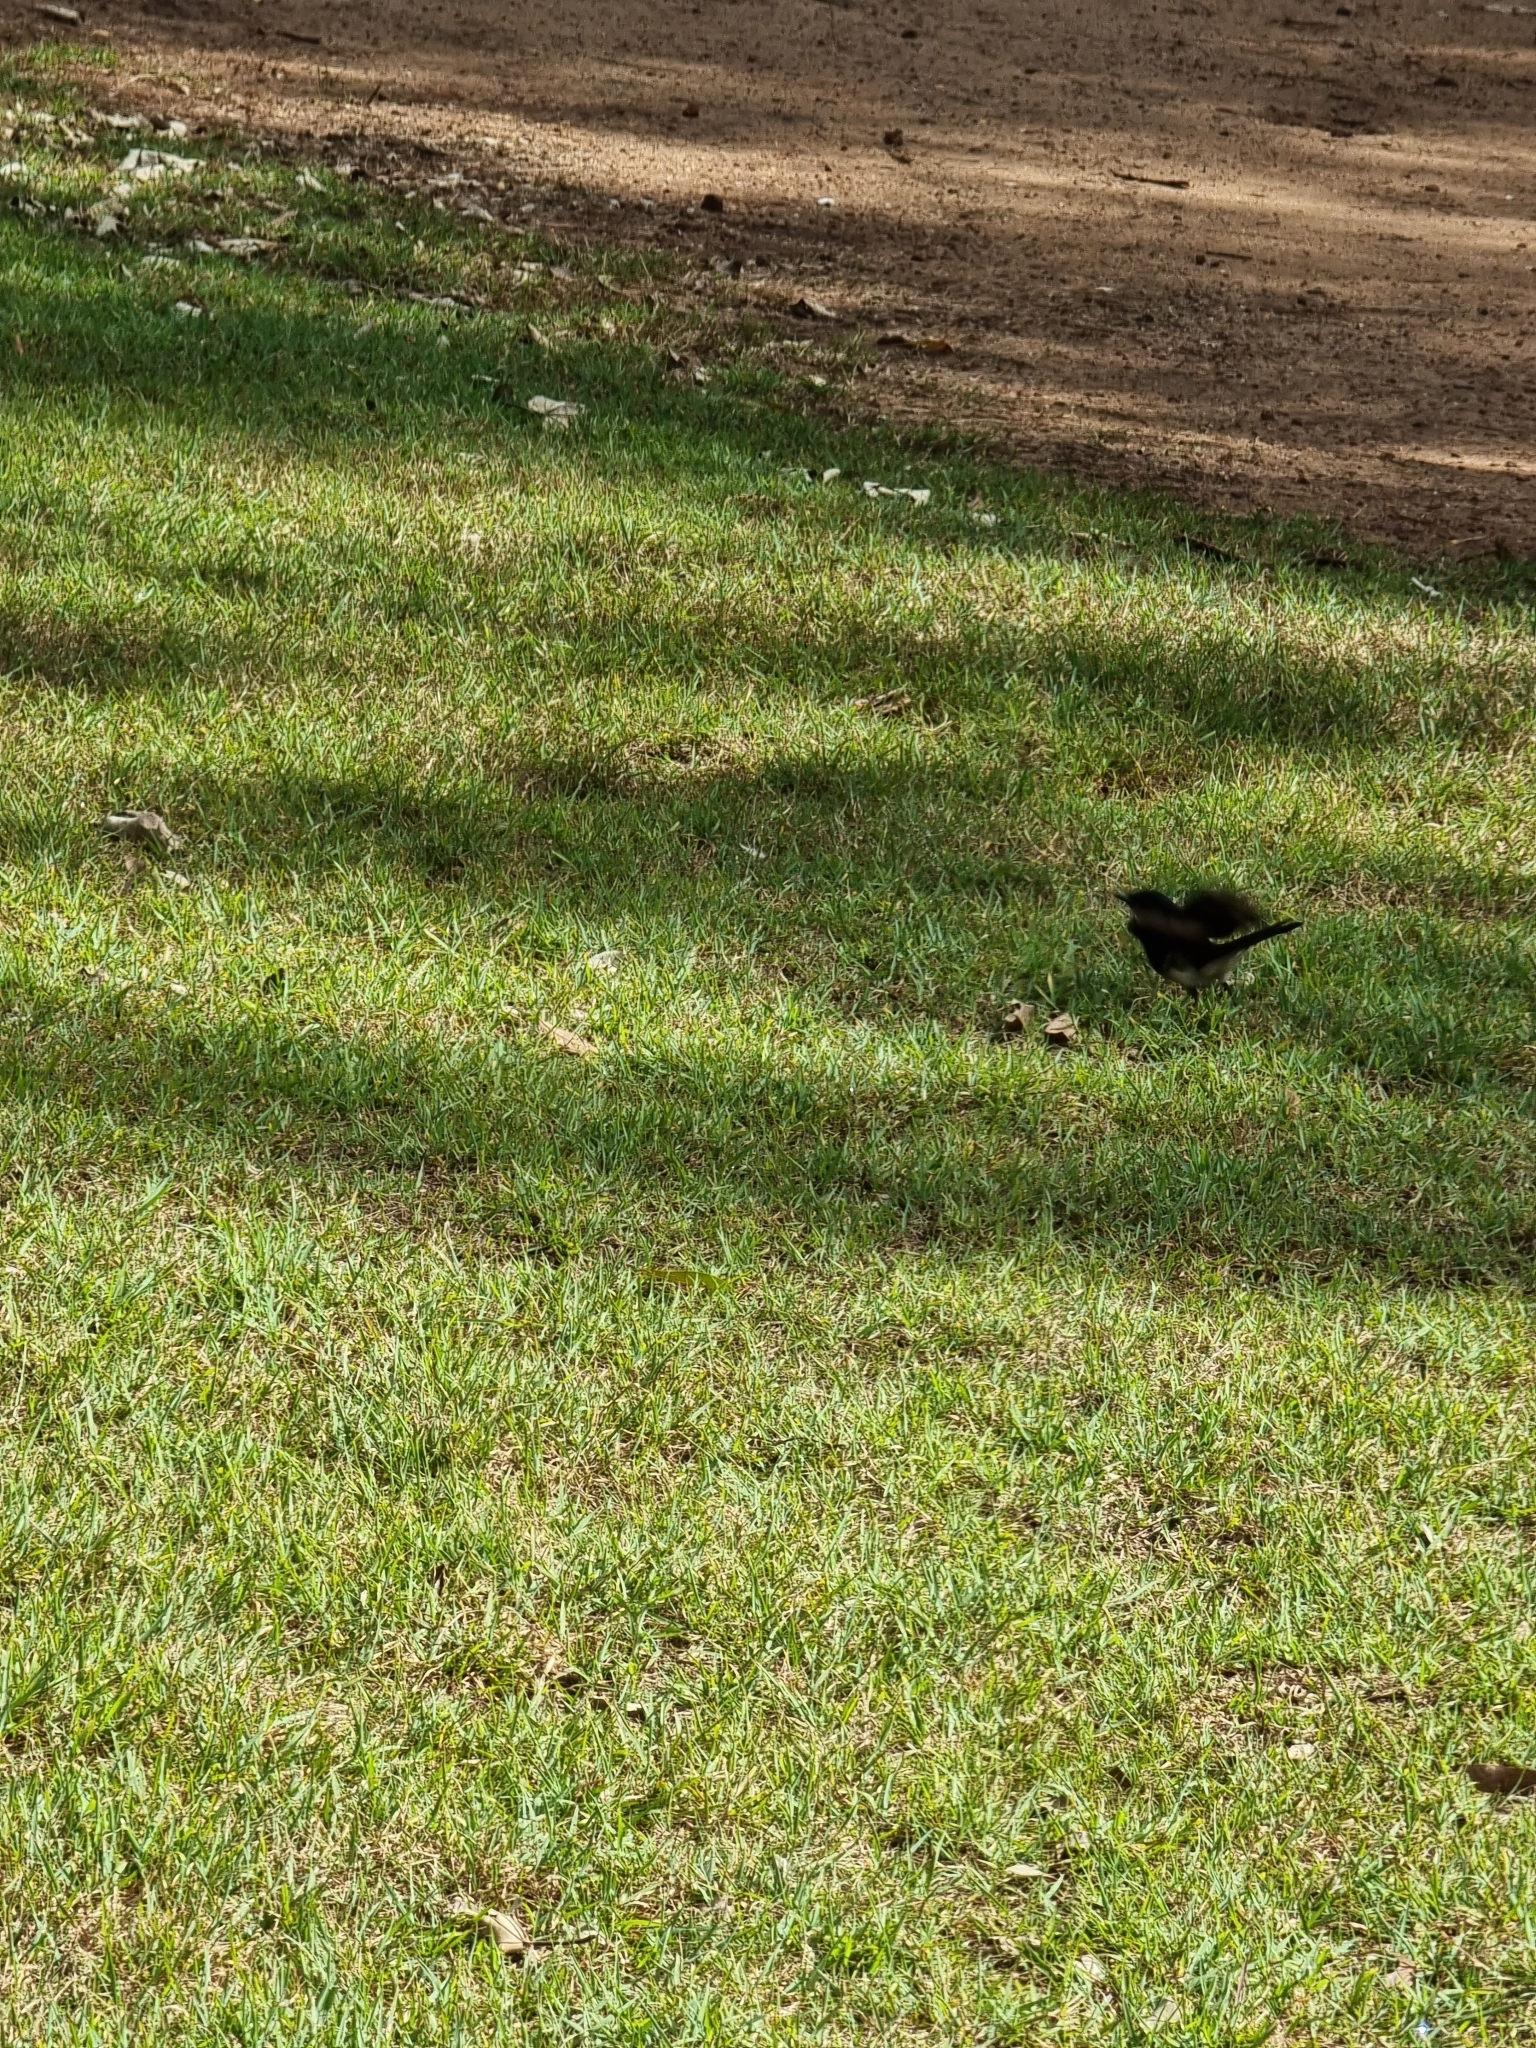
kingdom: Animalia
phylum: Chordata
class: Aves
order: Passeriformes
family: Rhipiduridae
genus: Rhipidura
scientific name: Rhipidura leucophrys
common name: Willie wagtail
